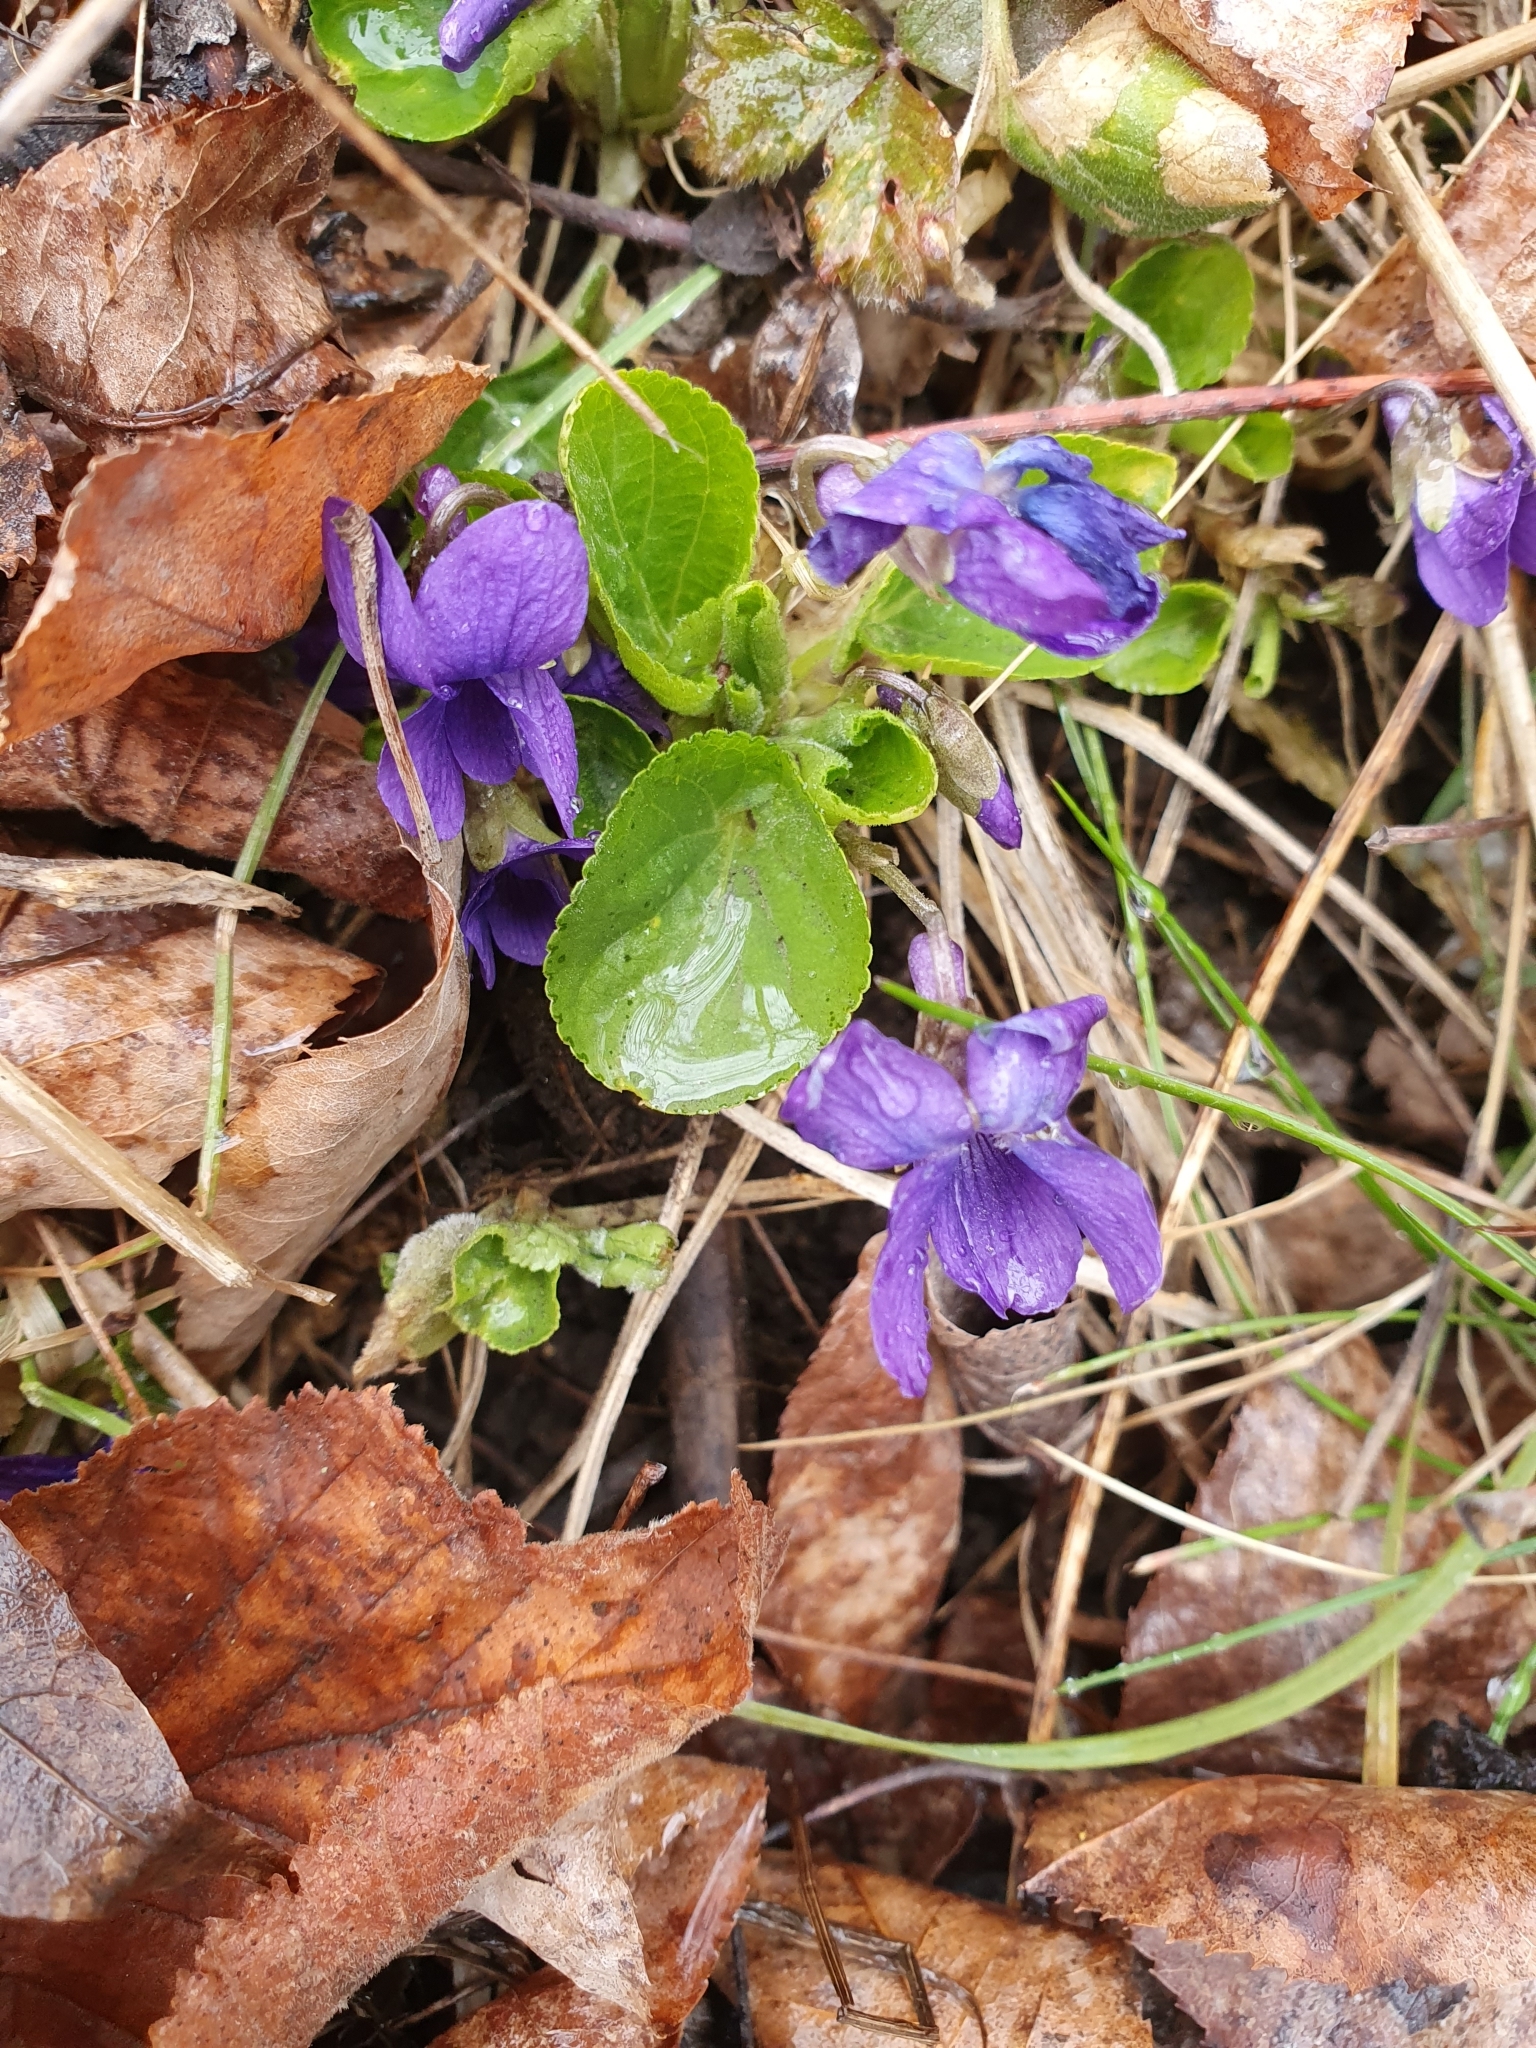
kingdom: Plantae
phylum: Tracheophyta
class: Magnoliopsida
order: Malpighiales
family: Violaceae
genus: Viola
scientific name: Viola odorata
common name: Sweet violet
